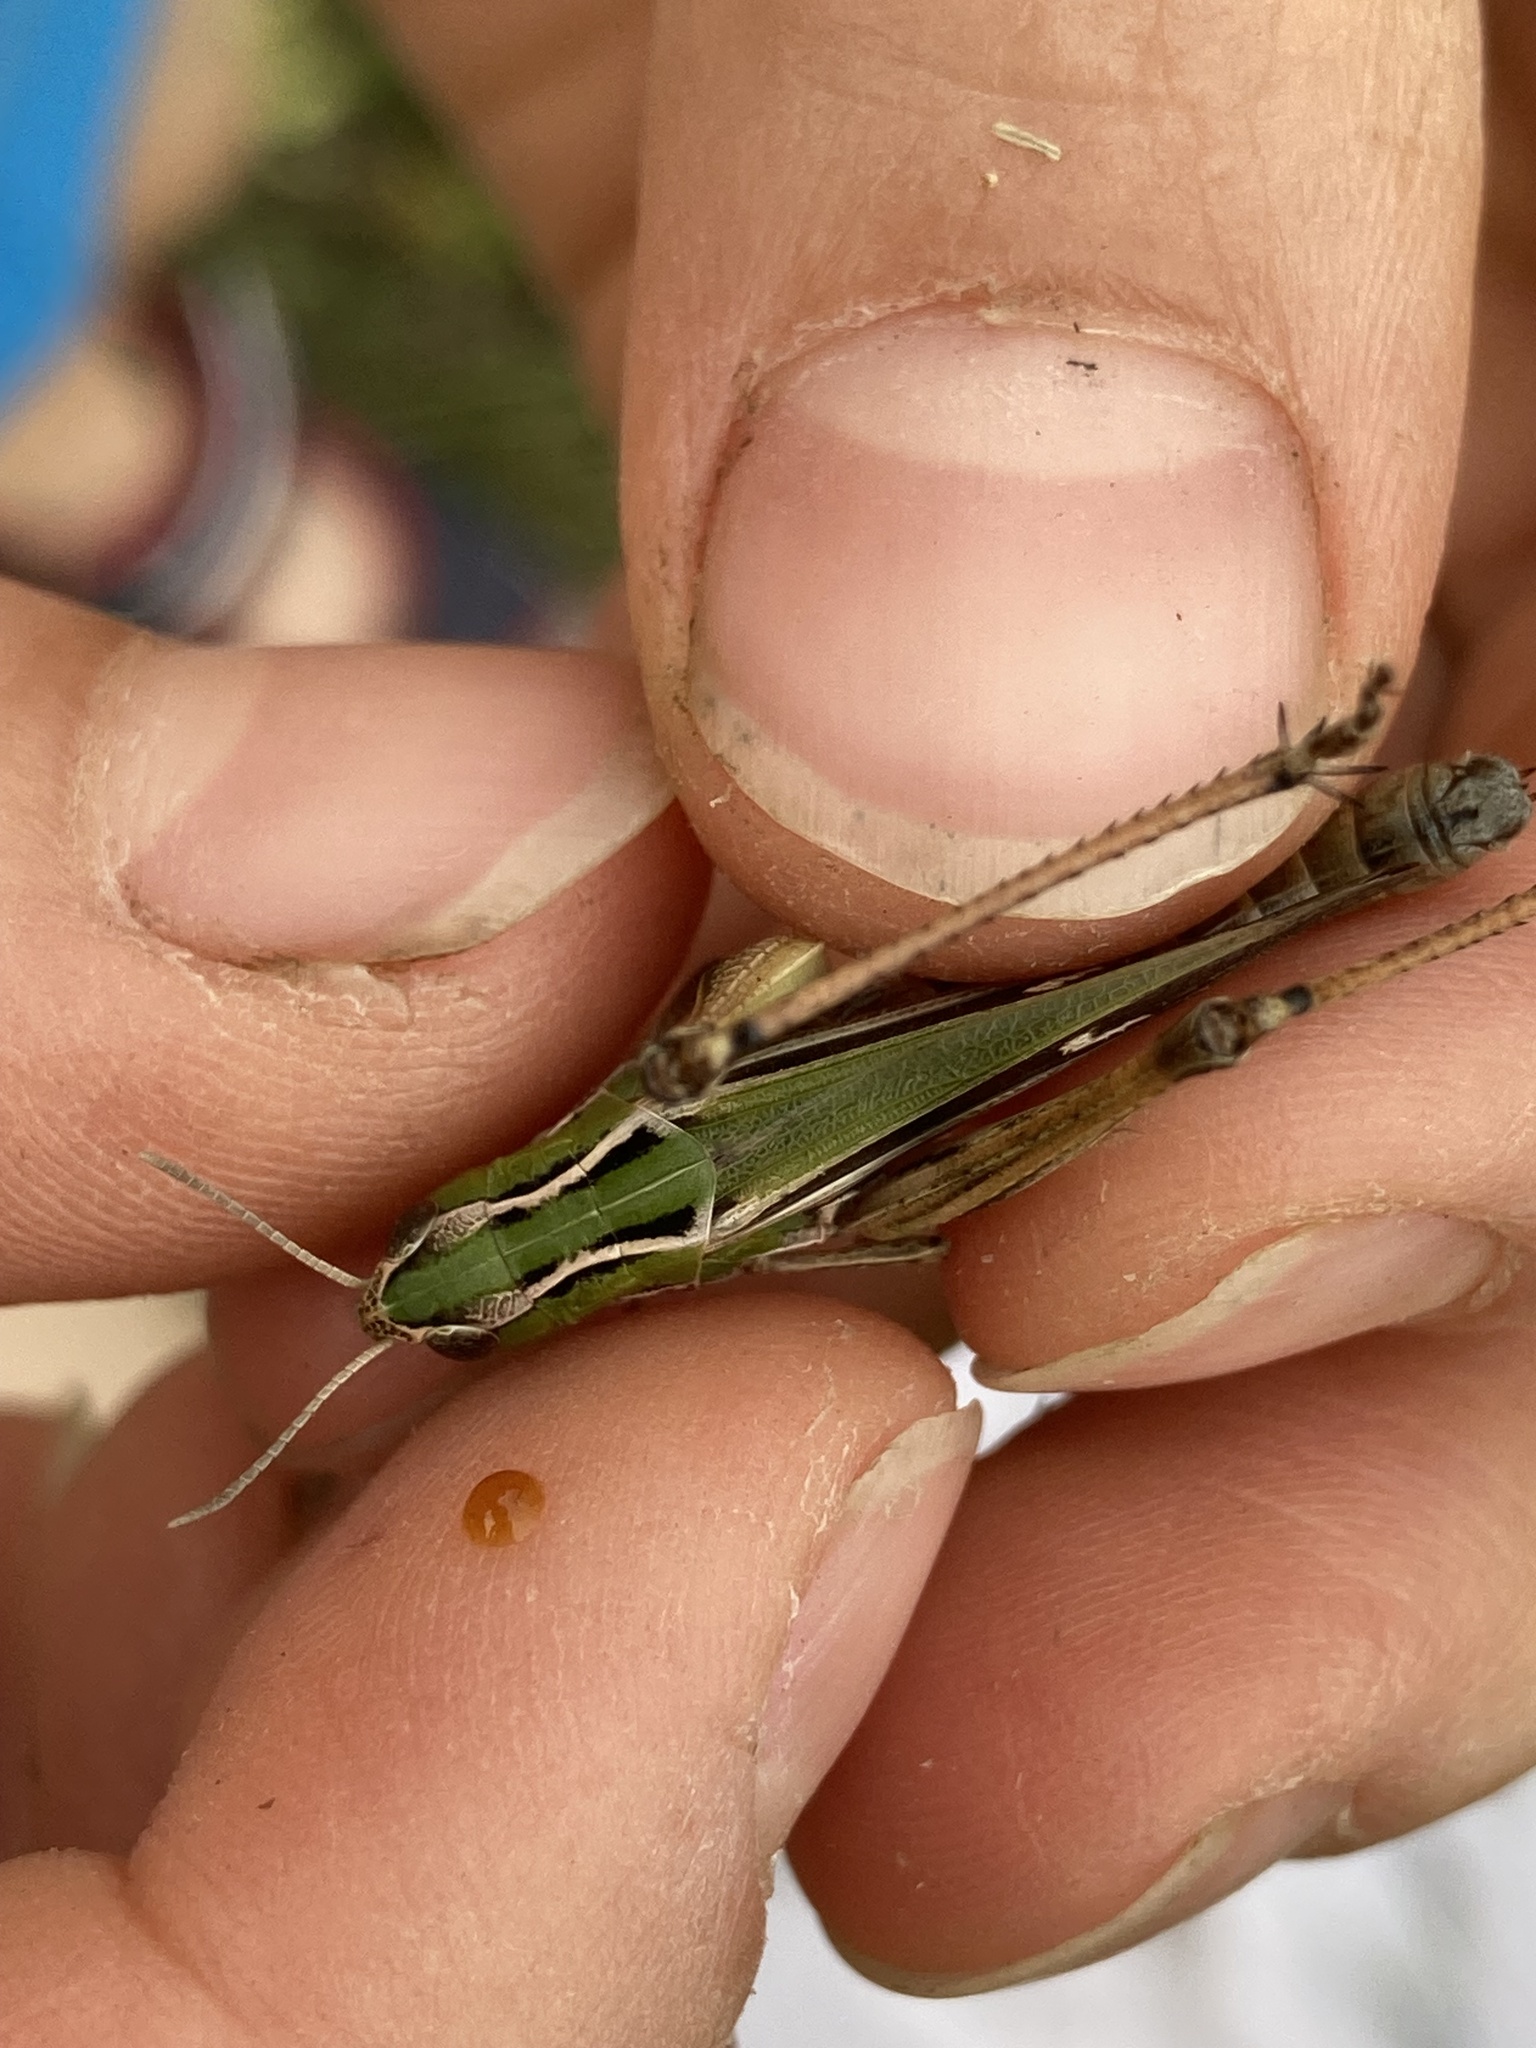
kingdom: Animalia
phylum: Arthropoda
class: Insecta
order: Orthoptera
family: Acrididae
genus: Stenobothrus
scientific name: Stenobothrus lineatus
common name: Stripe-winged grasshopper
